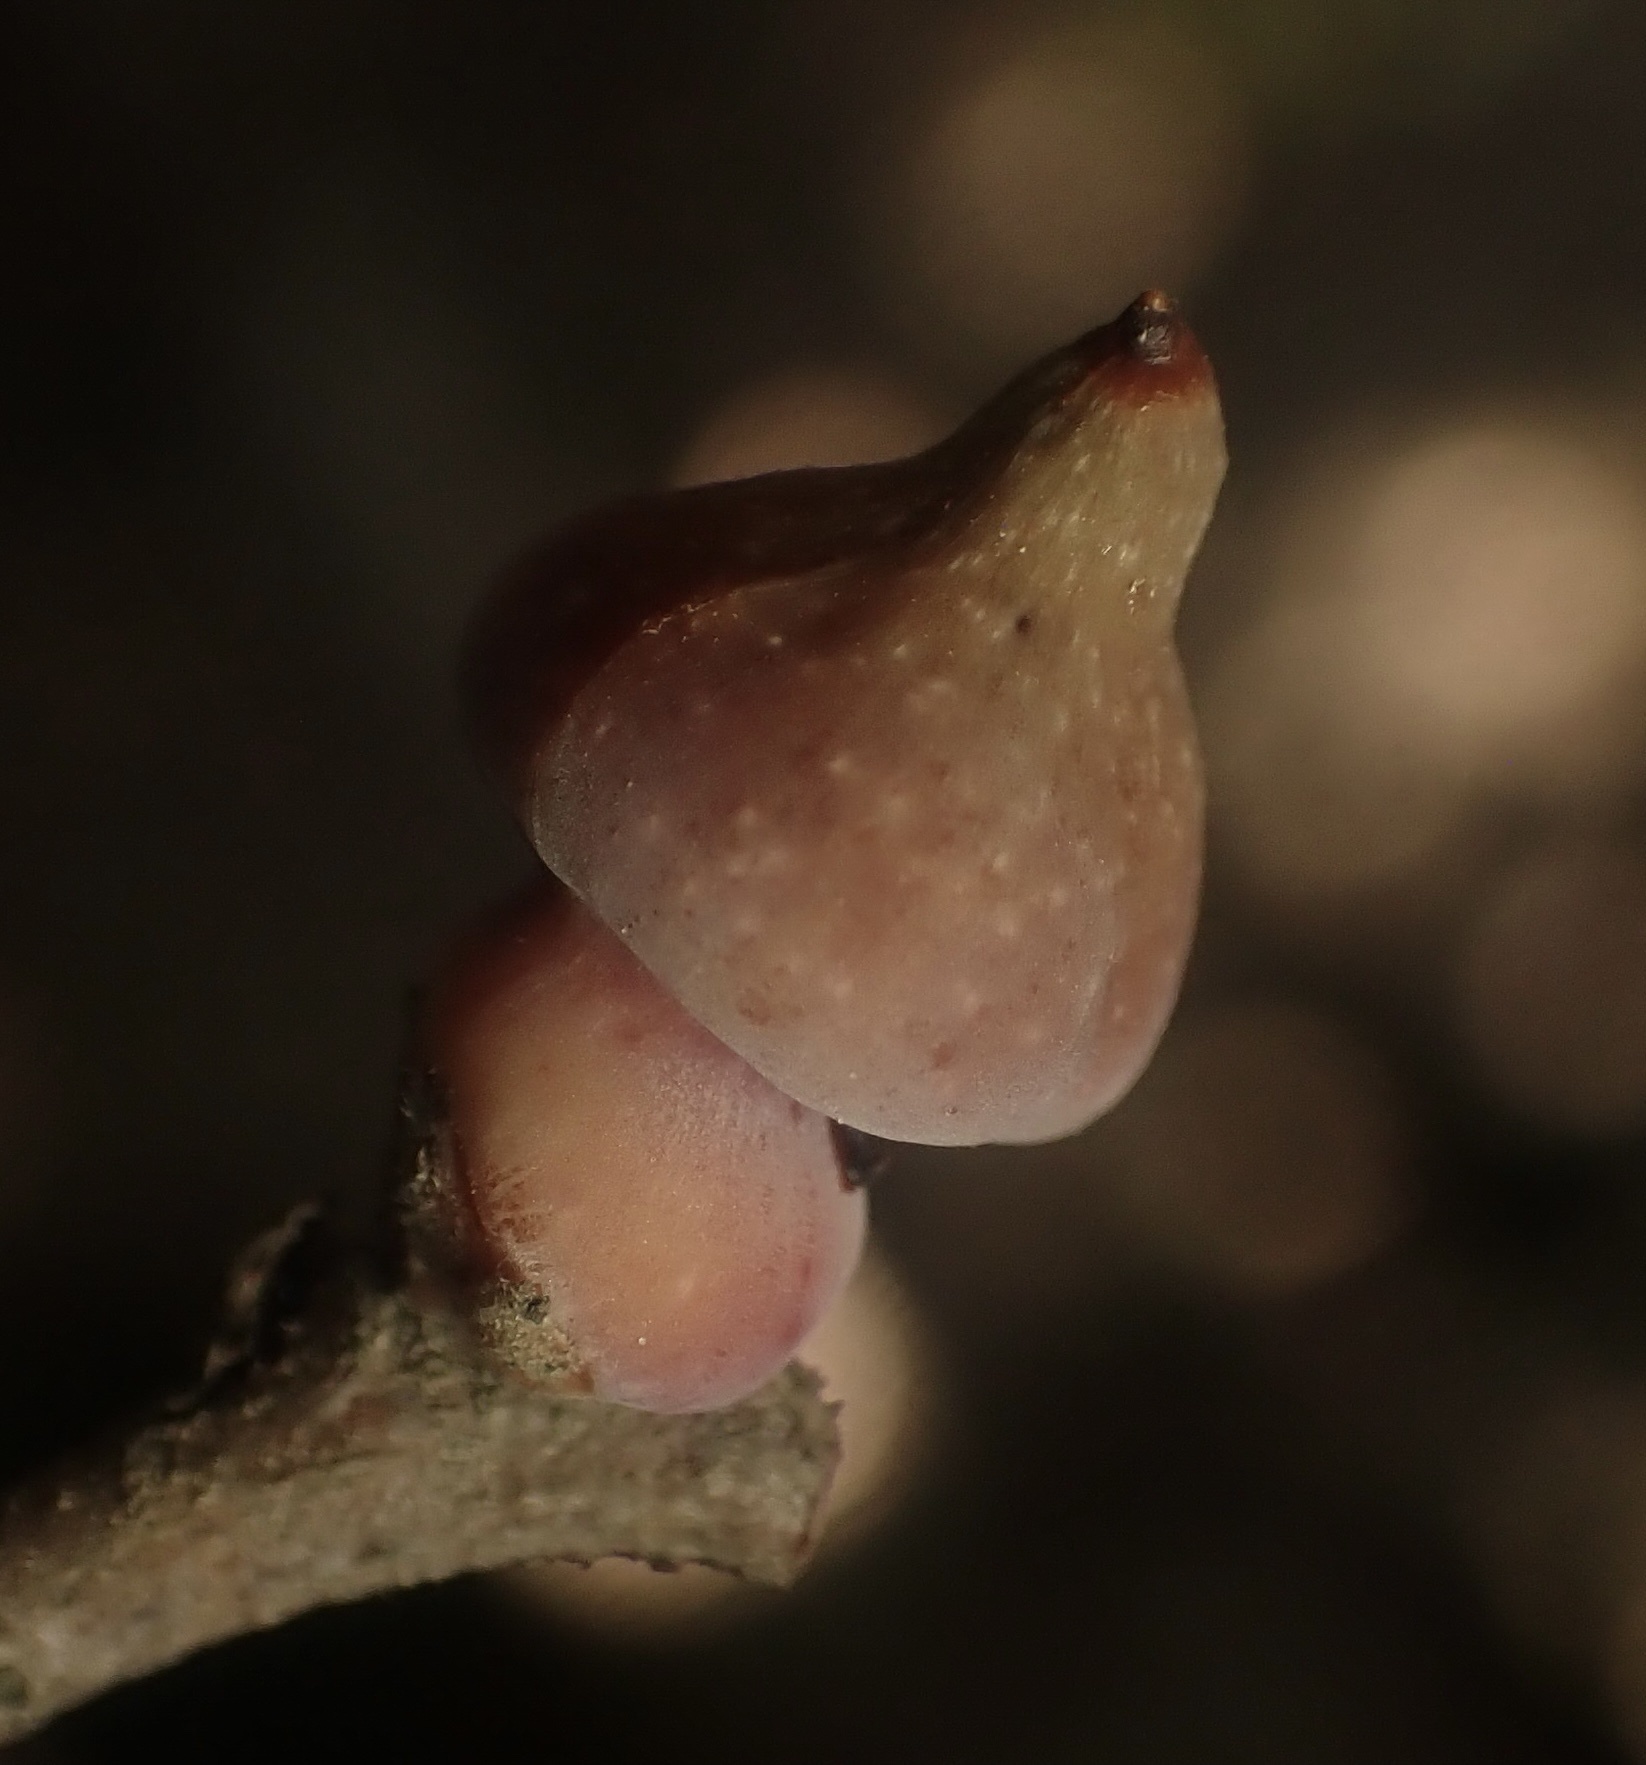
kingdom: Animalia
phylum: Arthropoda
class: Insecta
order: Hymenoptera
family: Cynipidae
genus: Heteroecus
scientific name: Heteroecus
